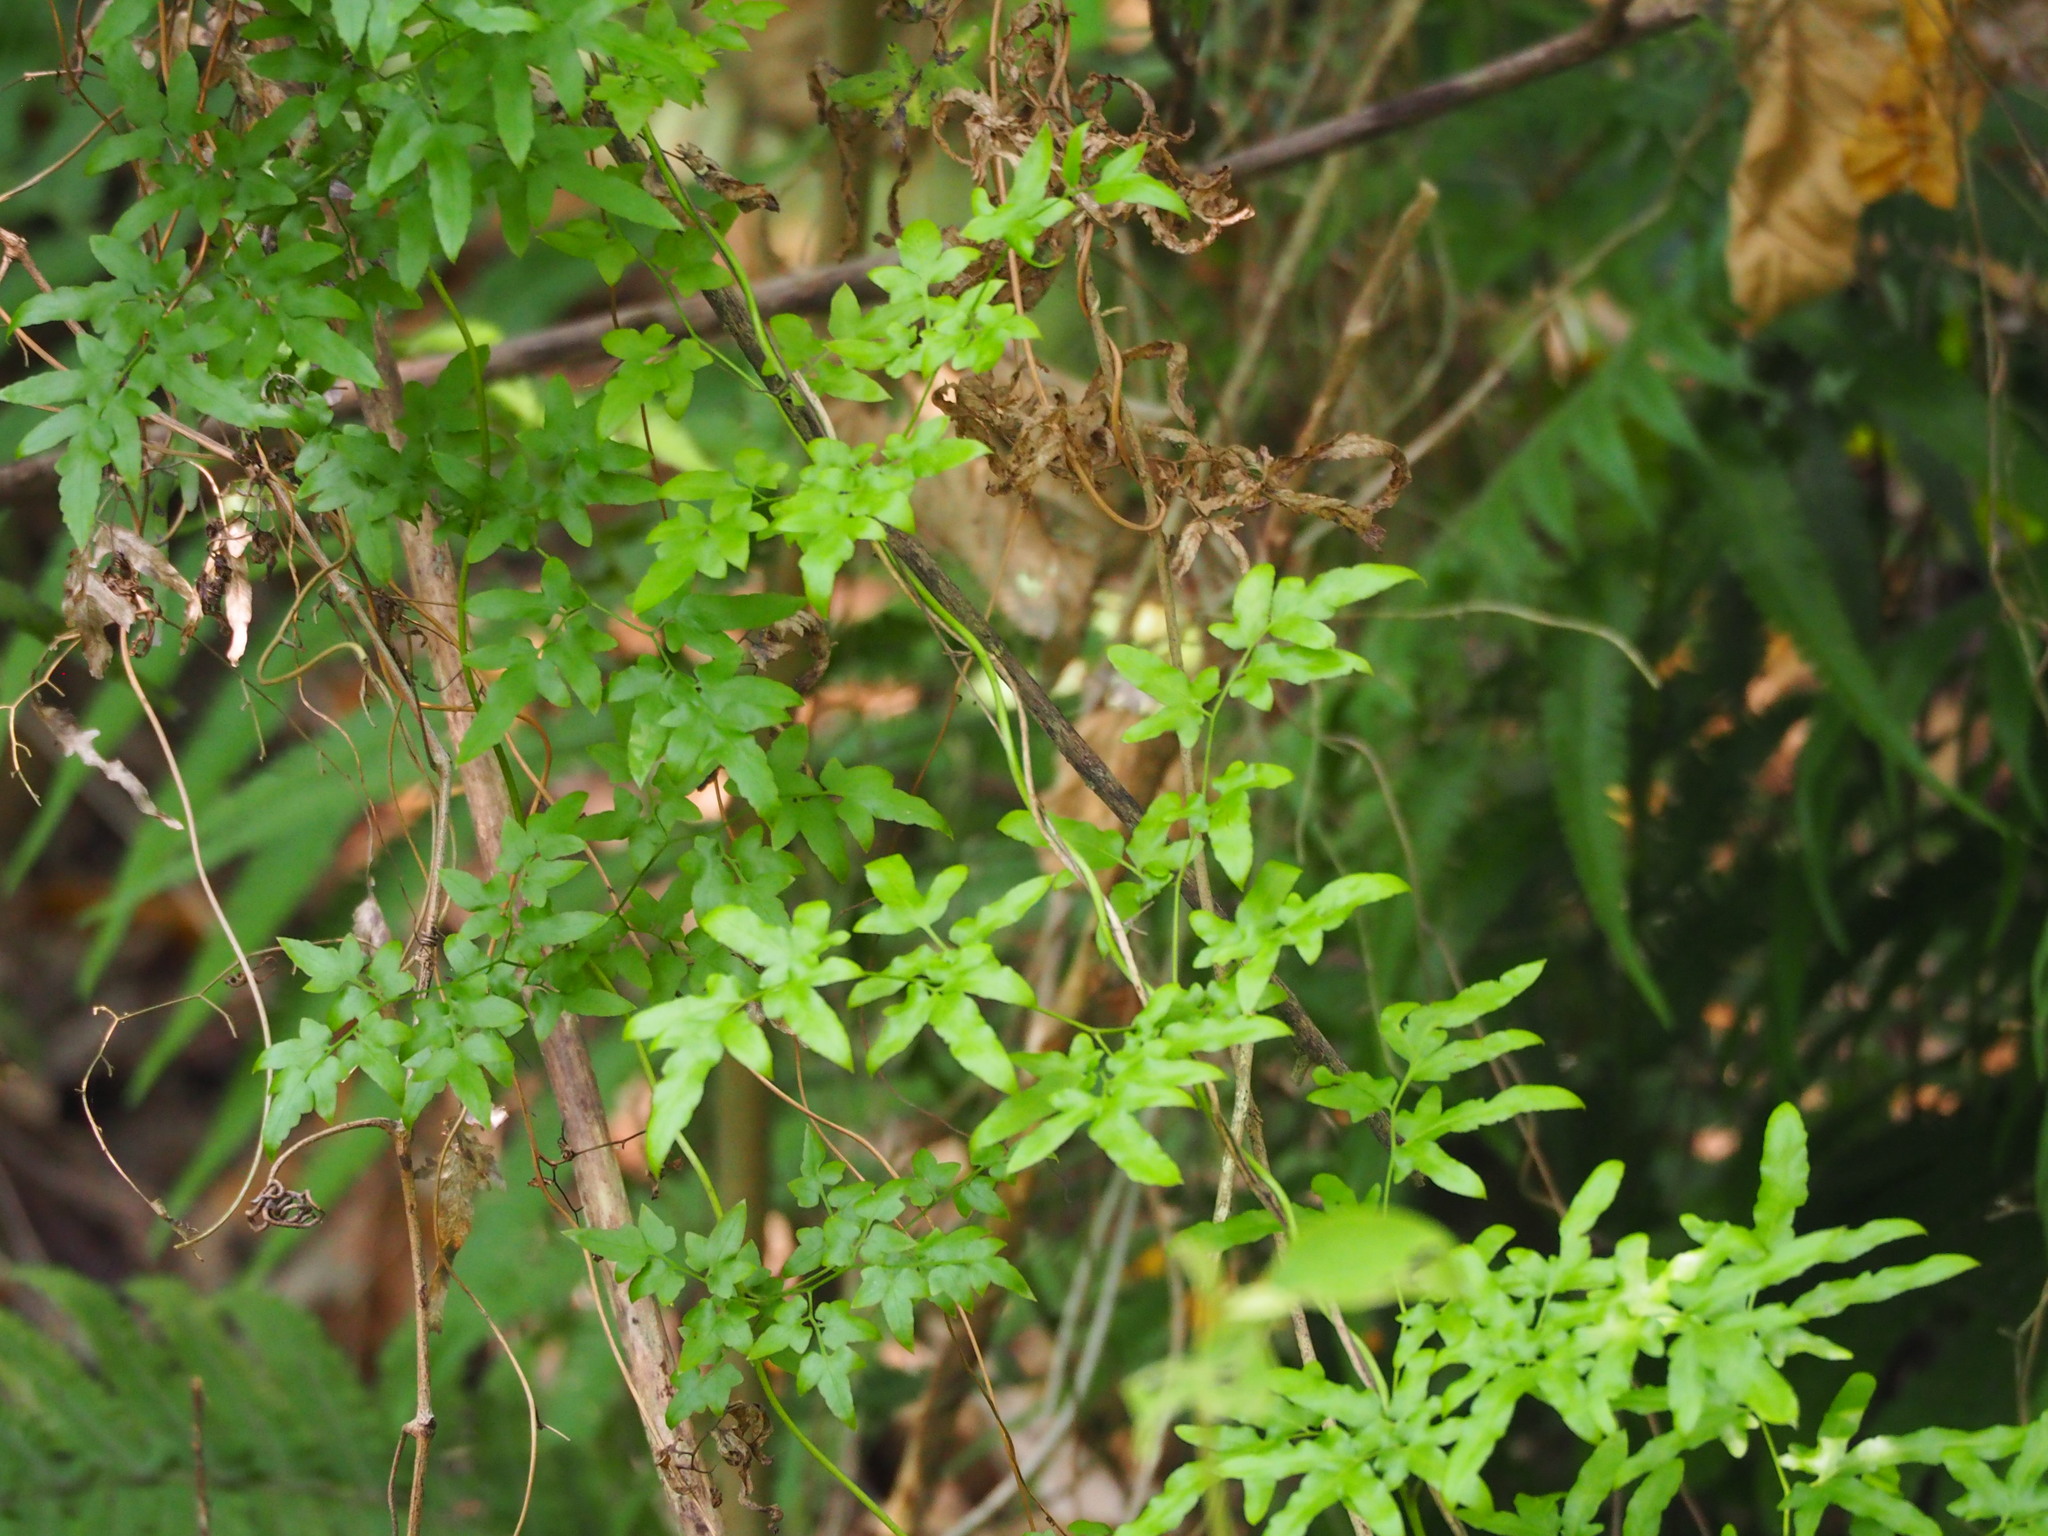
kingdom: Plantae
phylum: Tracheophyta
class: Polypodiopsida
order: Schizaeales
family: Lygodiaceae
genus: Lygodium
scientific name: Lygodium japonicum
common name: Japanese climbing fern
